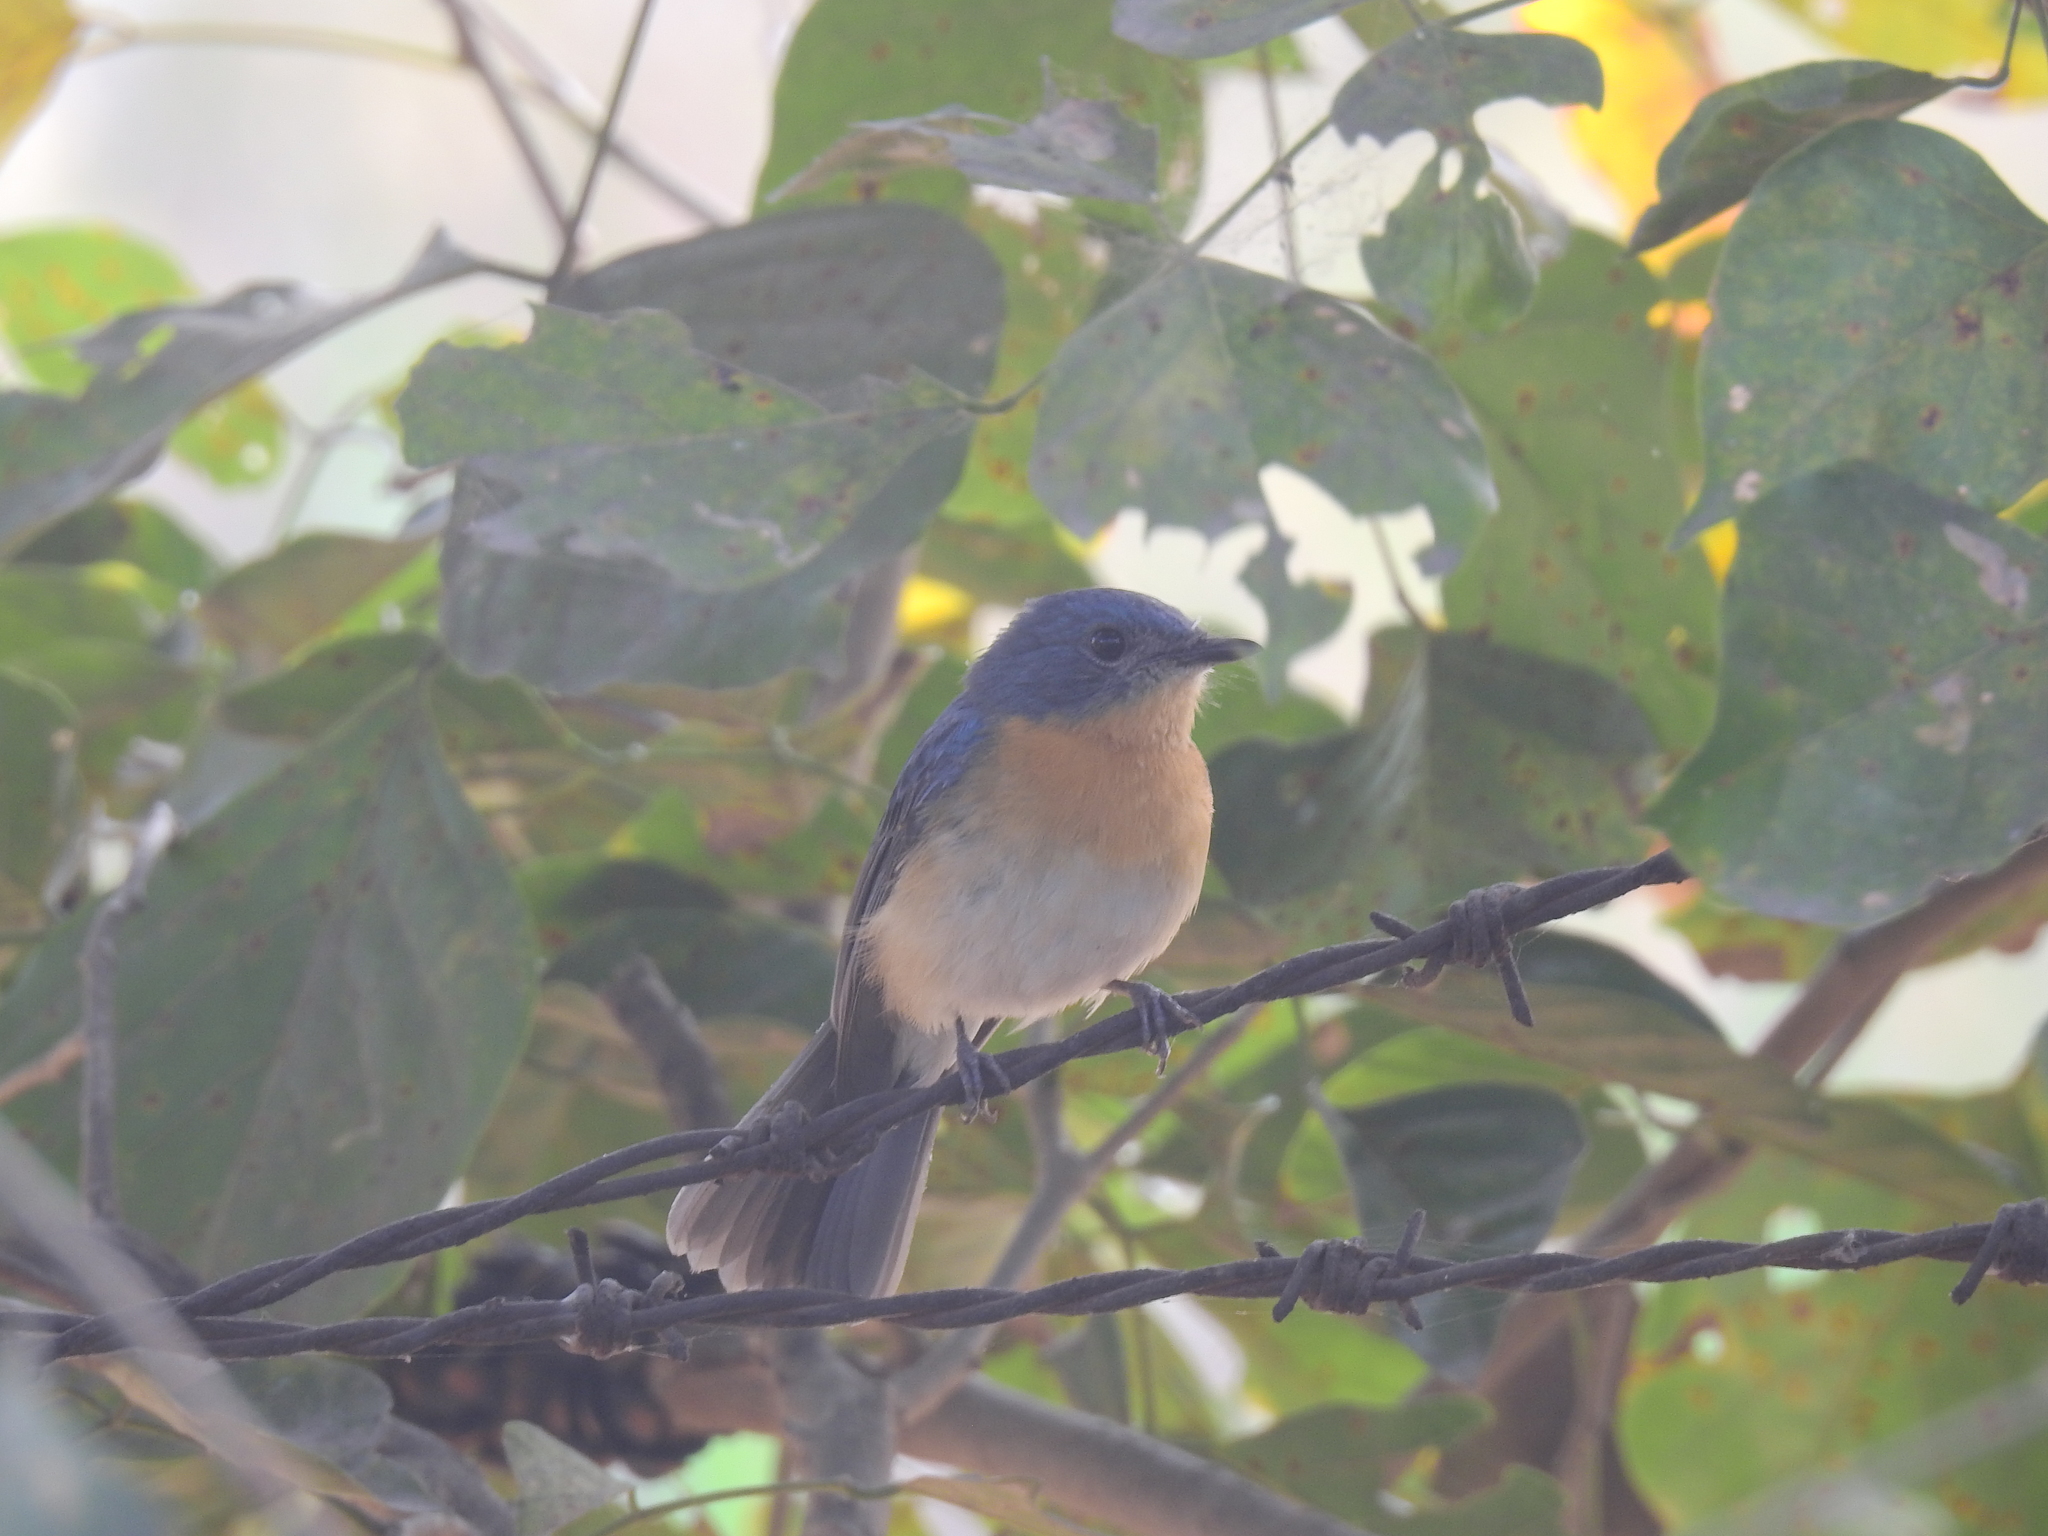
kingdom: Animalia
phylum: Chordata
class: Aves
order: Passeriformes
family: Muscicapidae
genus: Cyornis
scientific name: Cyornis tickelliae
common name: Tickell's blue flycatcher
